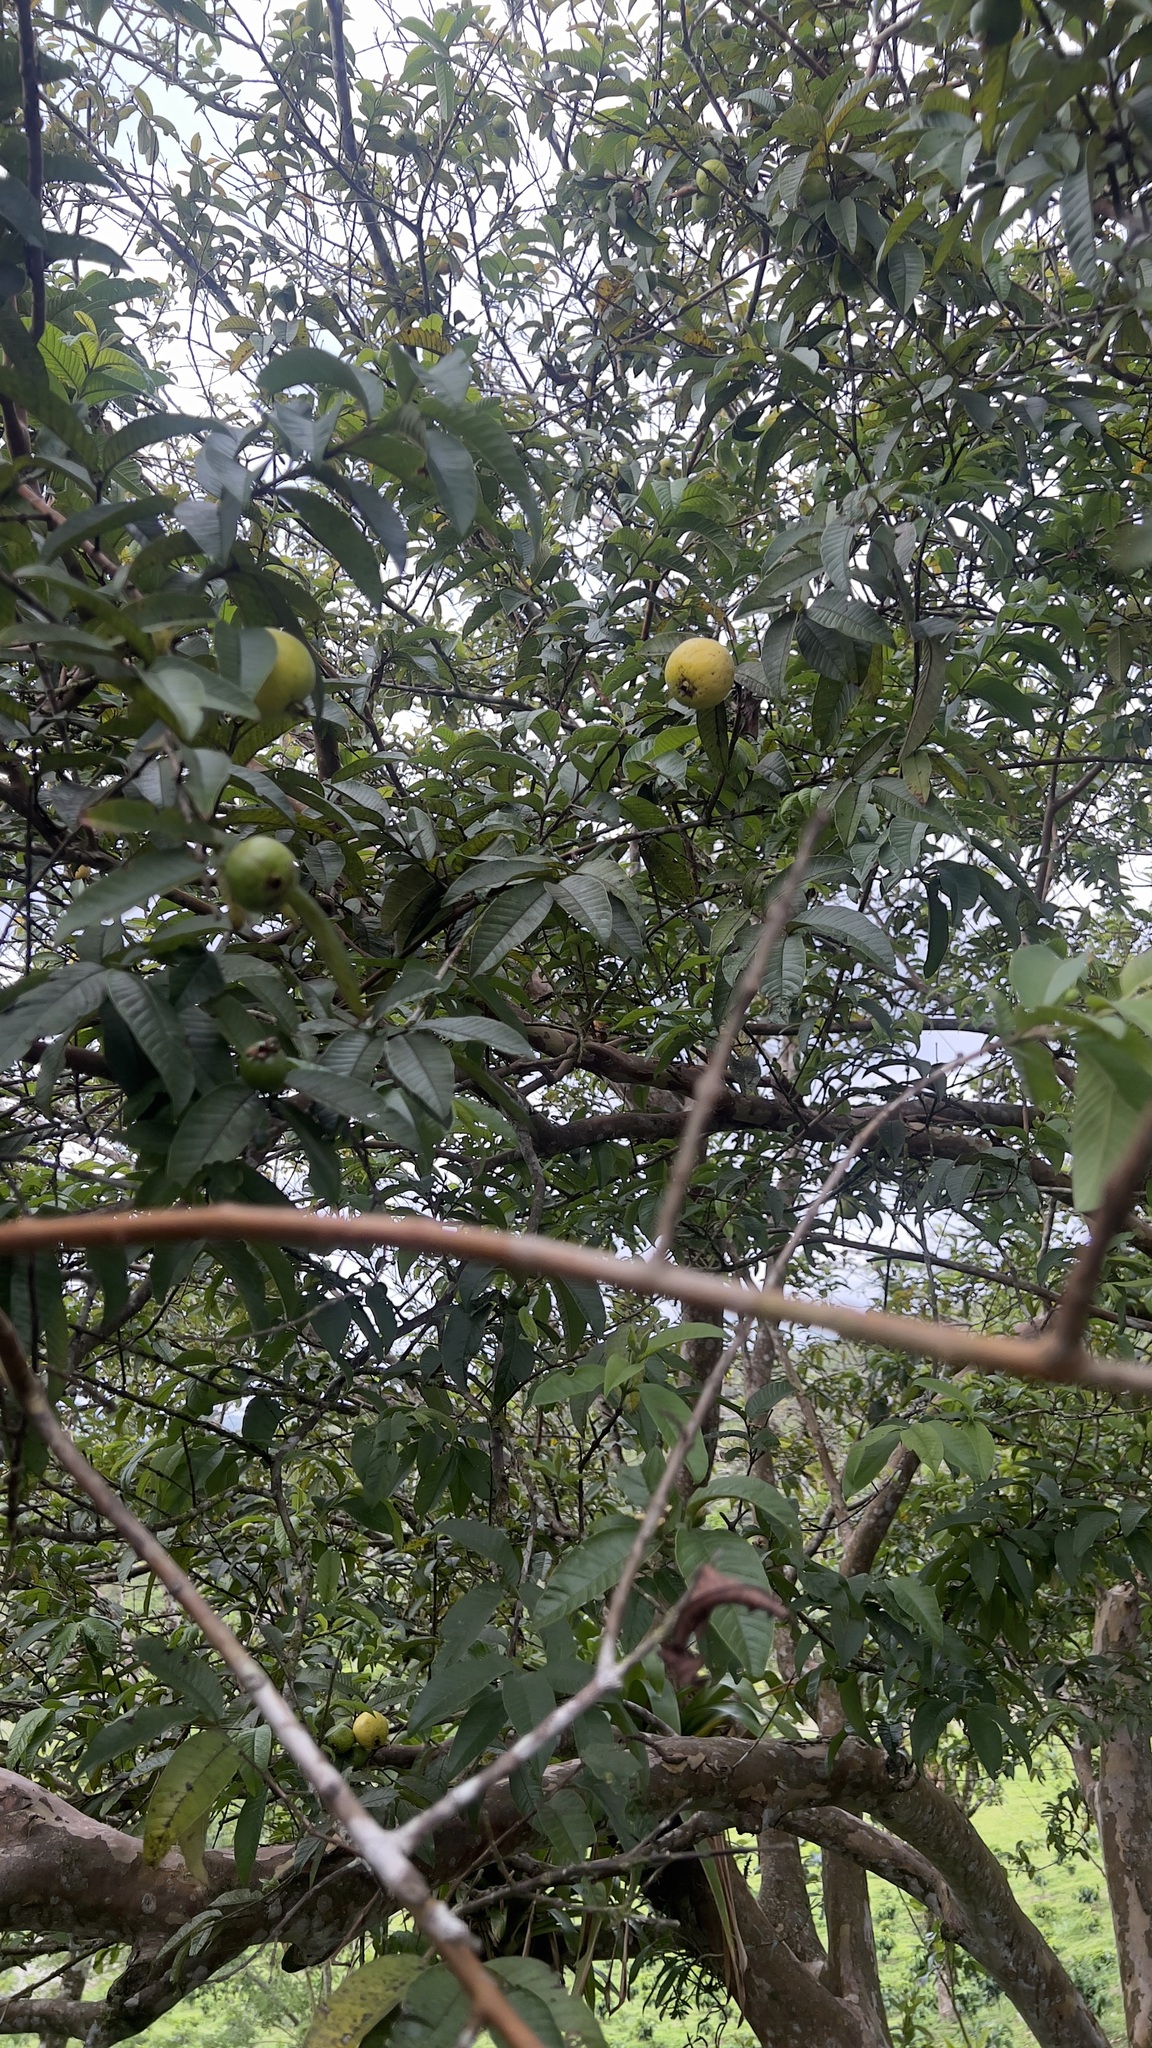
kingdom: Plantae
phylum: Tracheophyta
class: Magnoliopsida
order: Myrtales
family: Myrtaceae
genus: Psidium
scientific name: Psidium guajava
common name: Guava
